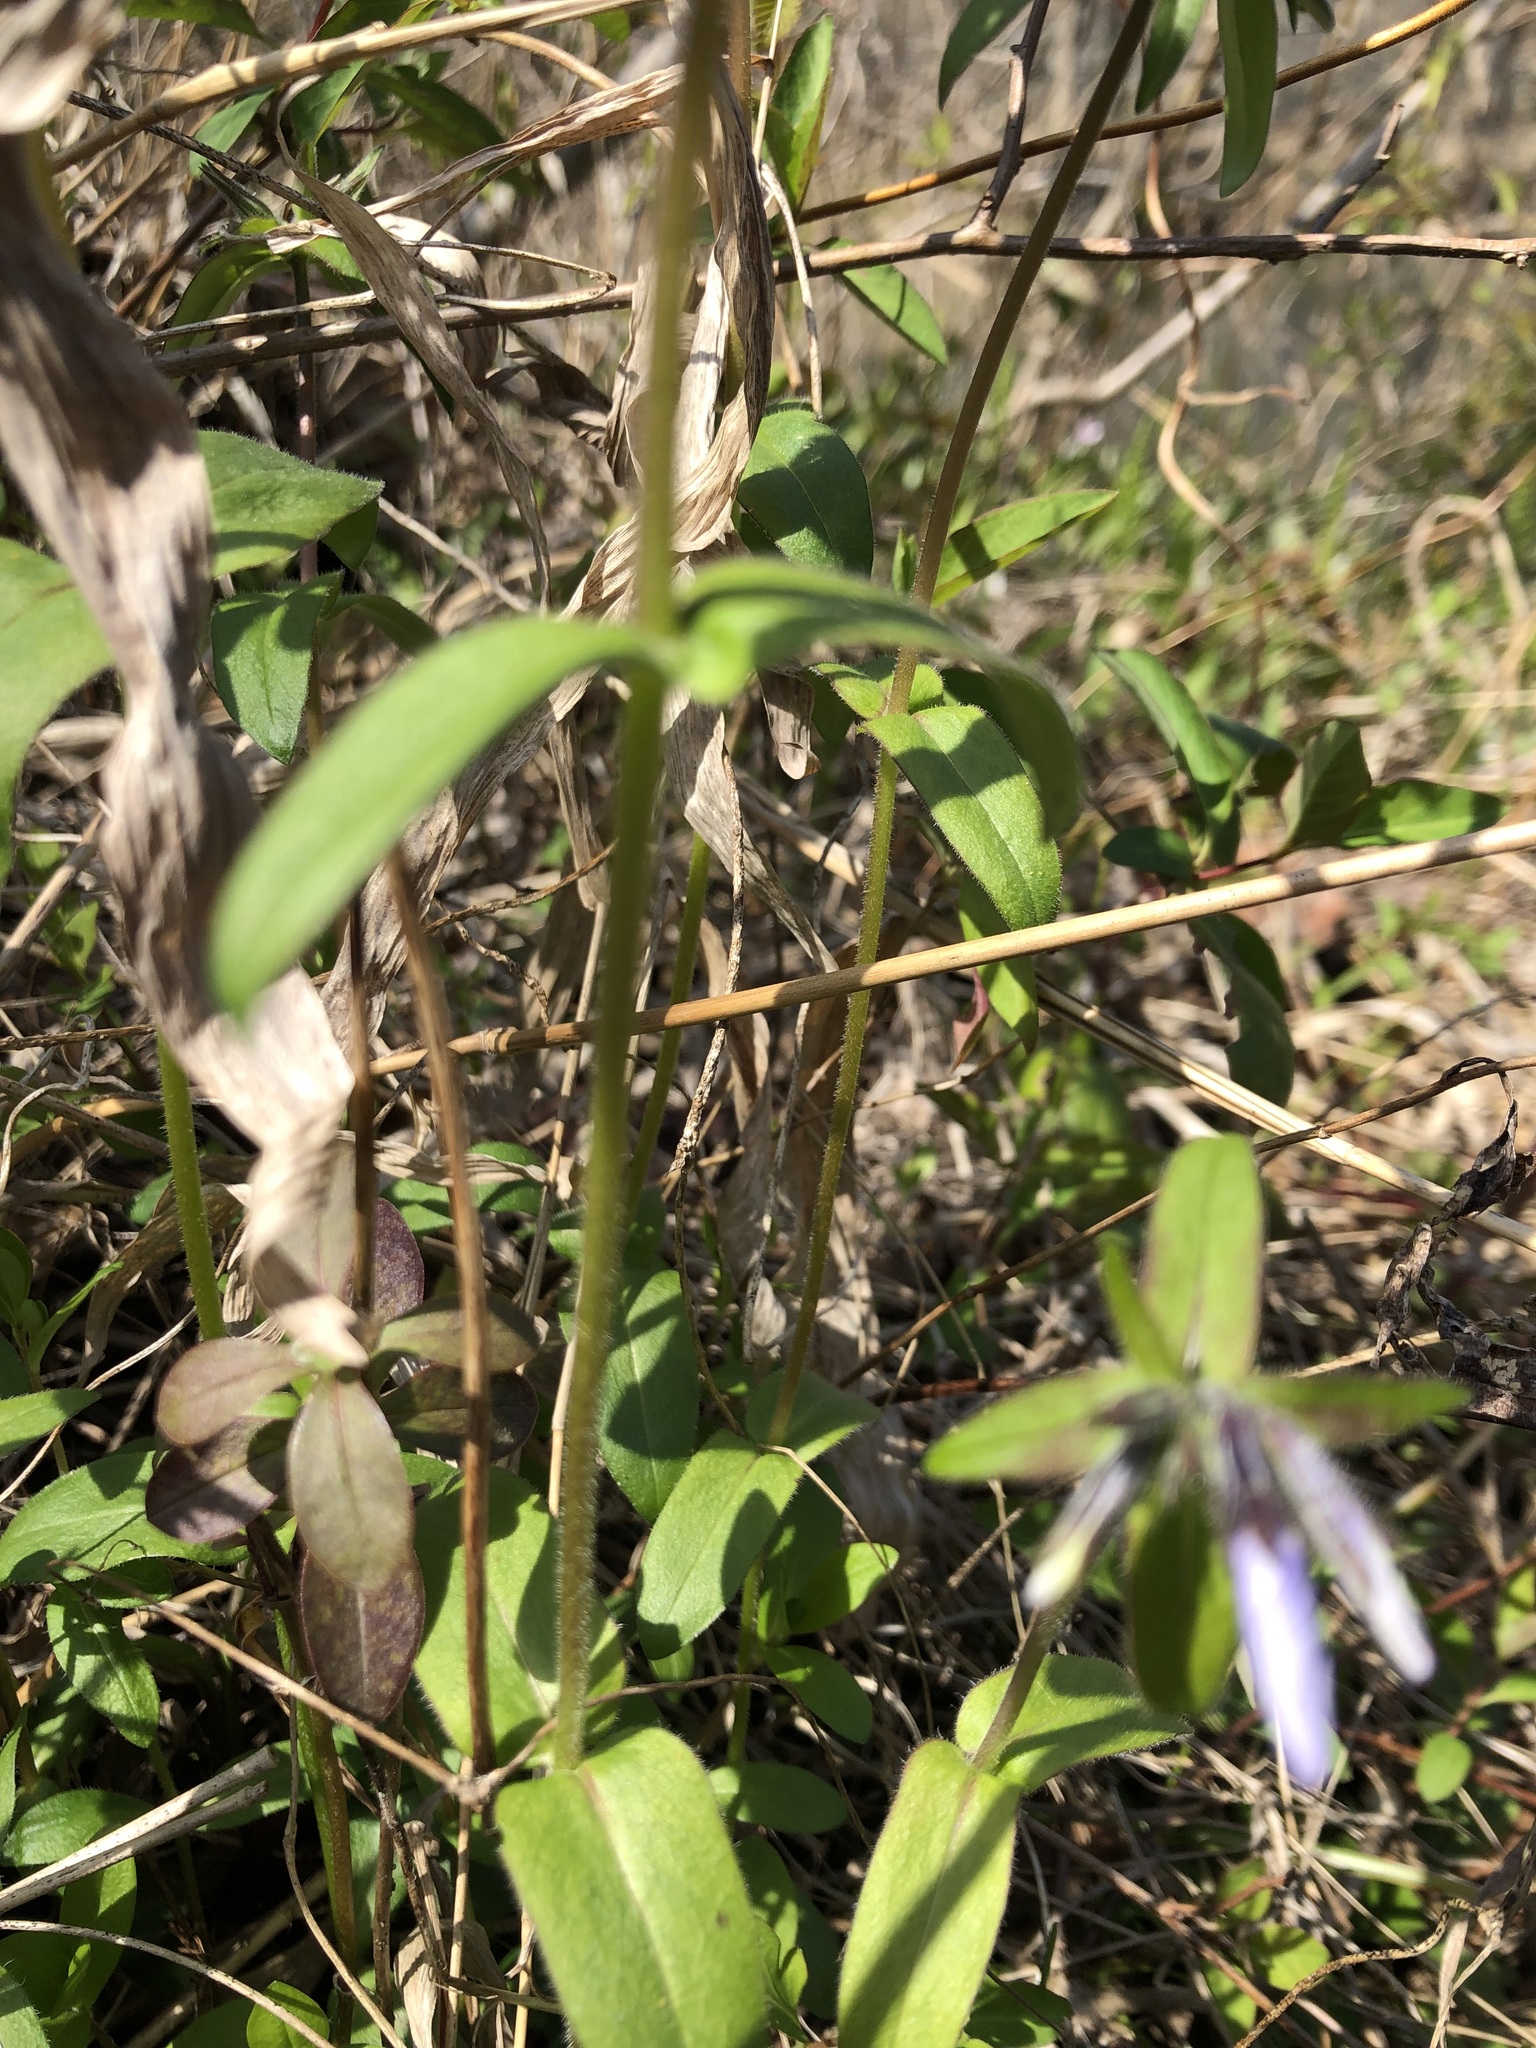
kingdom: Plantae
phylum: Tracheophyta
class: Magnoliopsida
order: Ericales
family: Polemoniaceae
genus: Phlox
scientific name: Phlox divaricata
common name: Blue phlox
